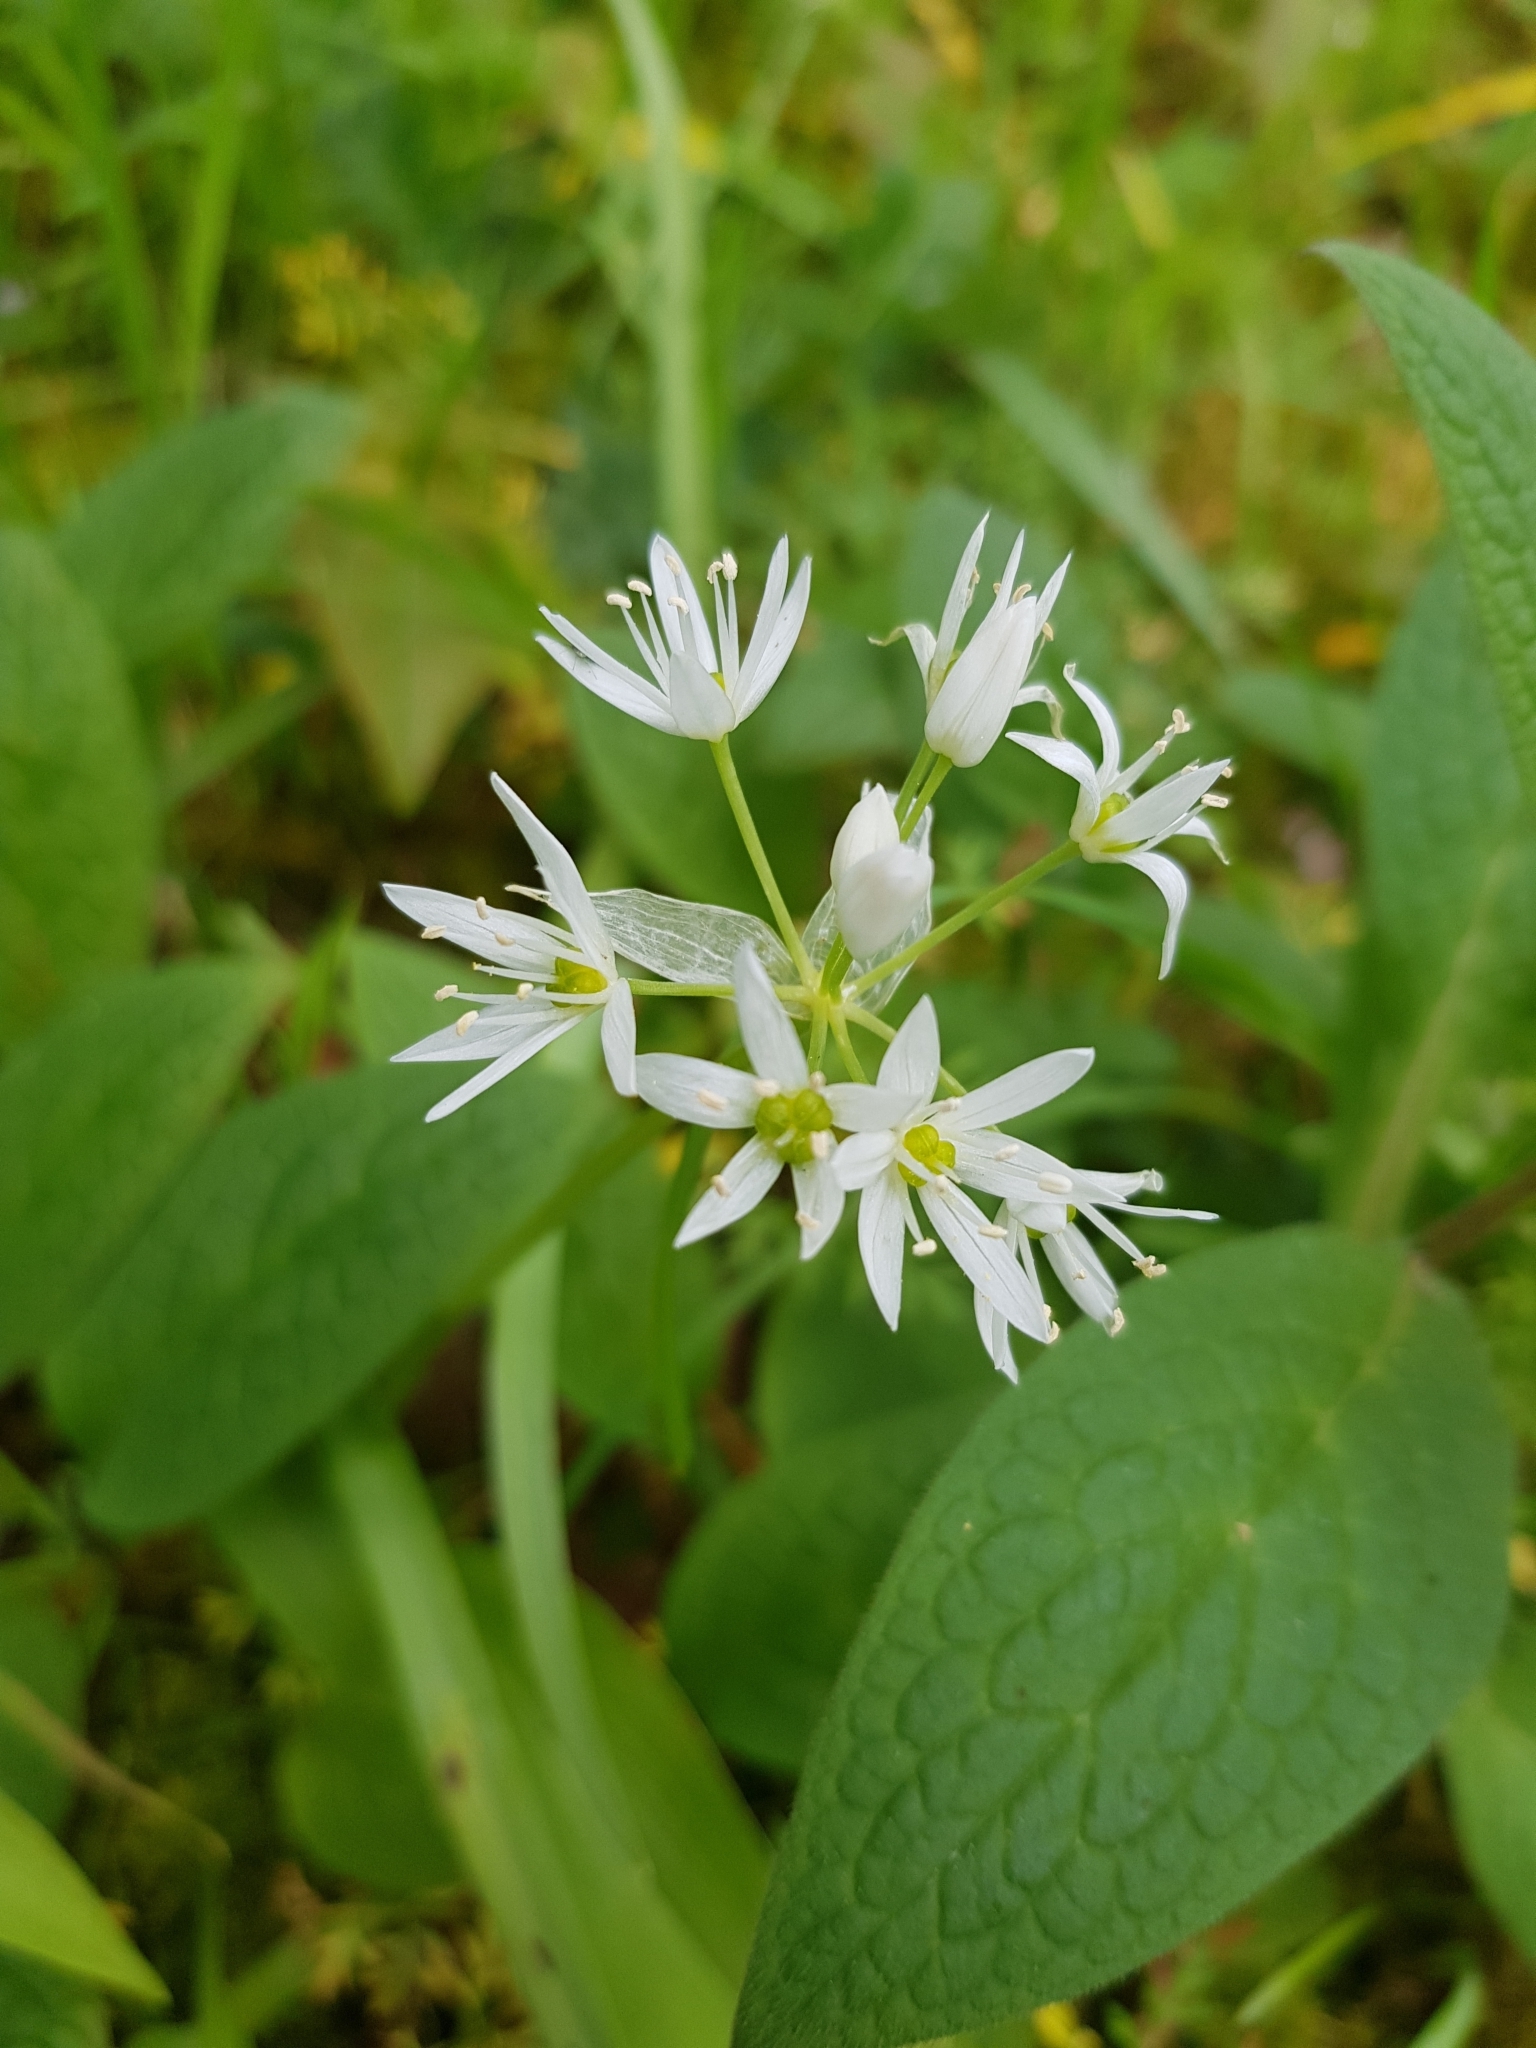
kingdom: Plantae
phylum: Tracheophyta
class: Liliopsida
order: Asparagales
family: Amaryllidaceae
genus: Allium
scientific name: Allium ursinum
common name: Ramsons
